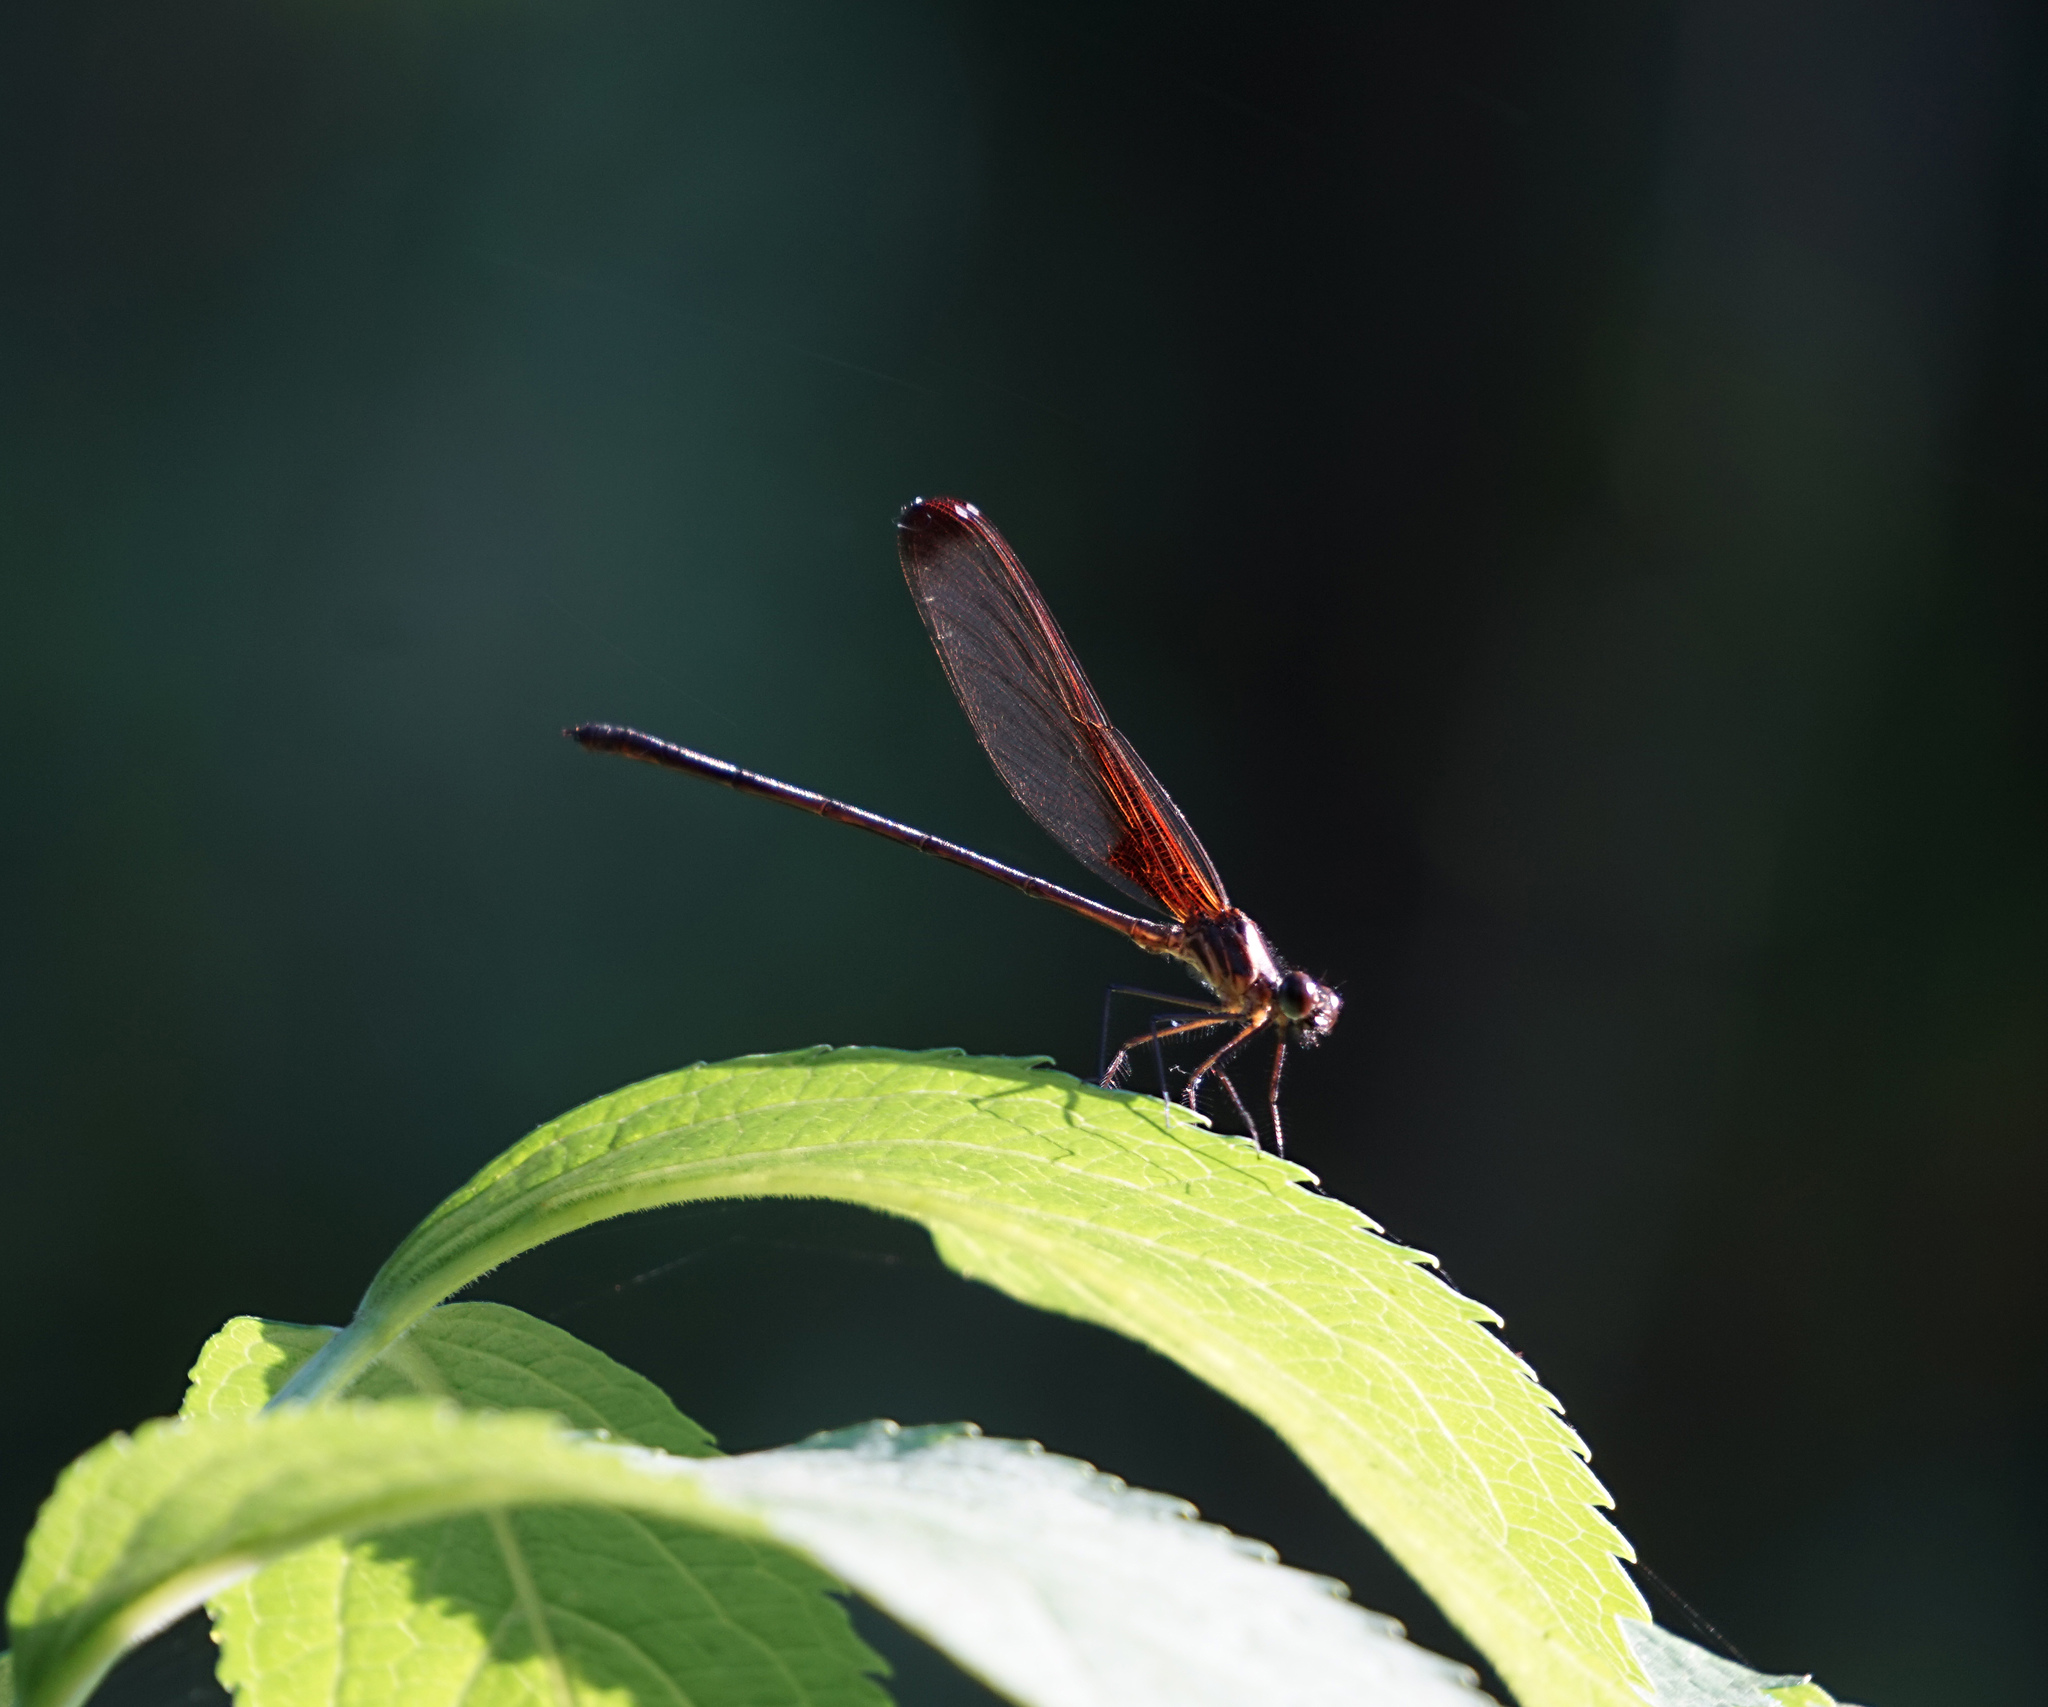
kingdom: Animalia
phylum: Arthropoda
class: Insecta
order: Odonata
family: Calopterygidae
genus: Hetaerina
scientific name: Hetaerina titia
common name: Smoky rubyspot
